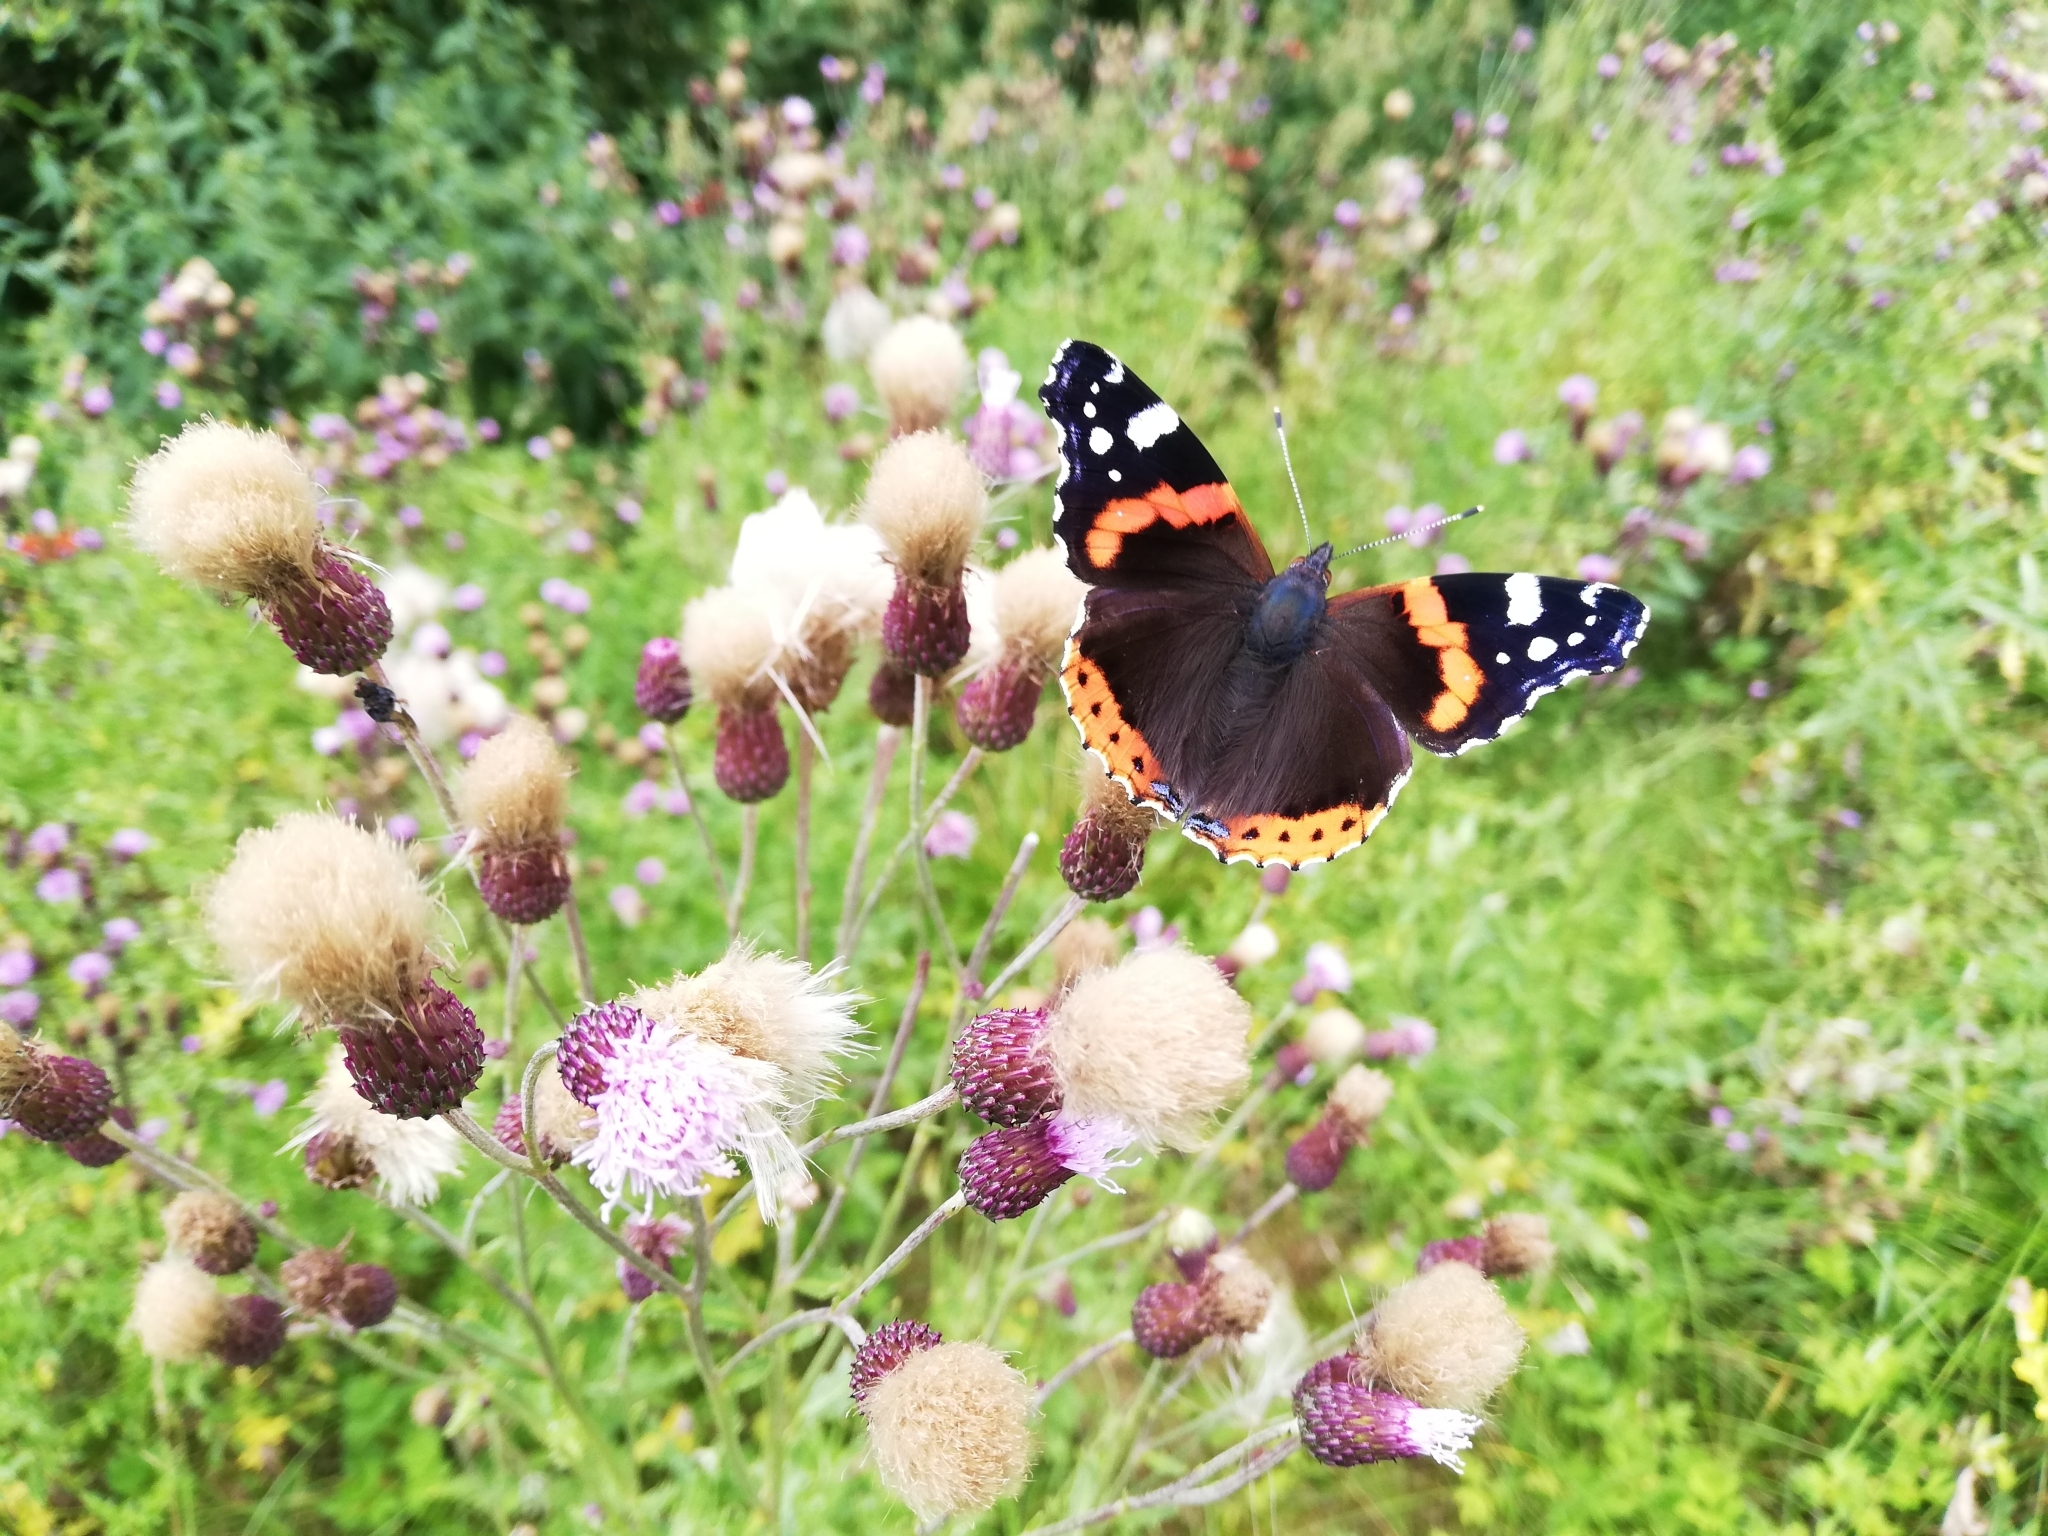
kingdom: Animalia
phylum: Arthropoda
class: Insecta
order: Lepidoptera
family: Nymphalidae
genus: Vanessa
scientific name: Vanessa atalanta
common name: Red admiral
